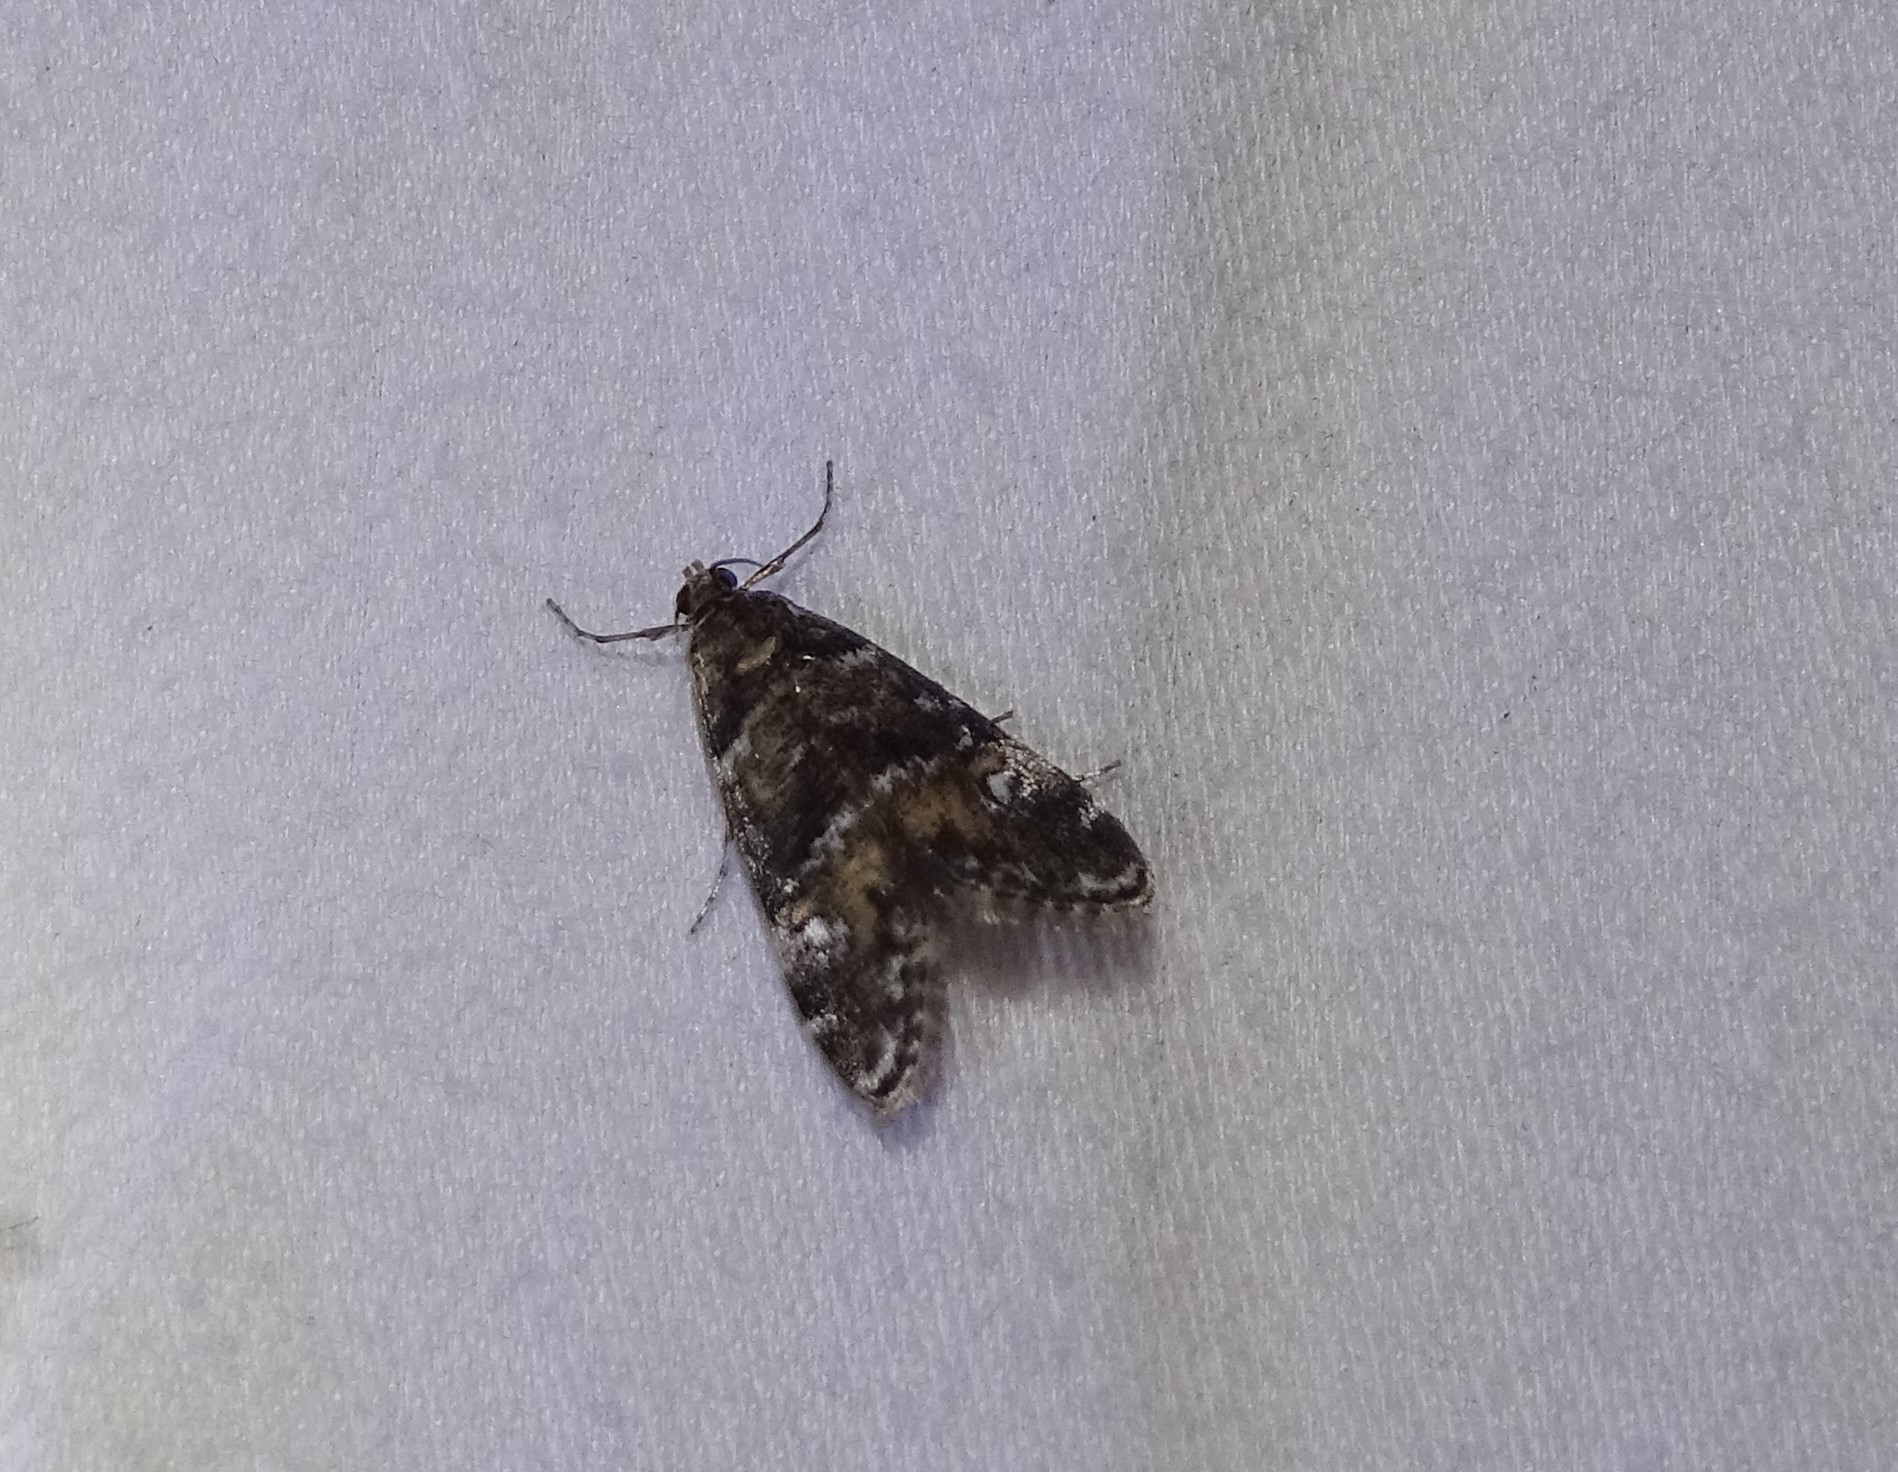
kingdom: Animalia
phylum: Arthropoda
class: Insecta
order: Lepidoptera
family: Crambidae
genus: Elophila
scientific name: Elophila obliteralis
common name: Waterlily leafcutter moth
